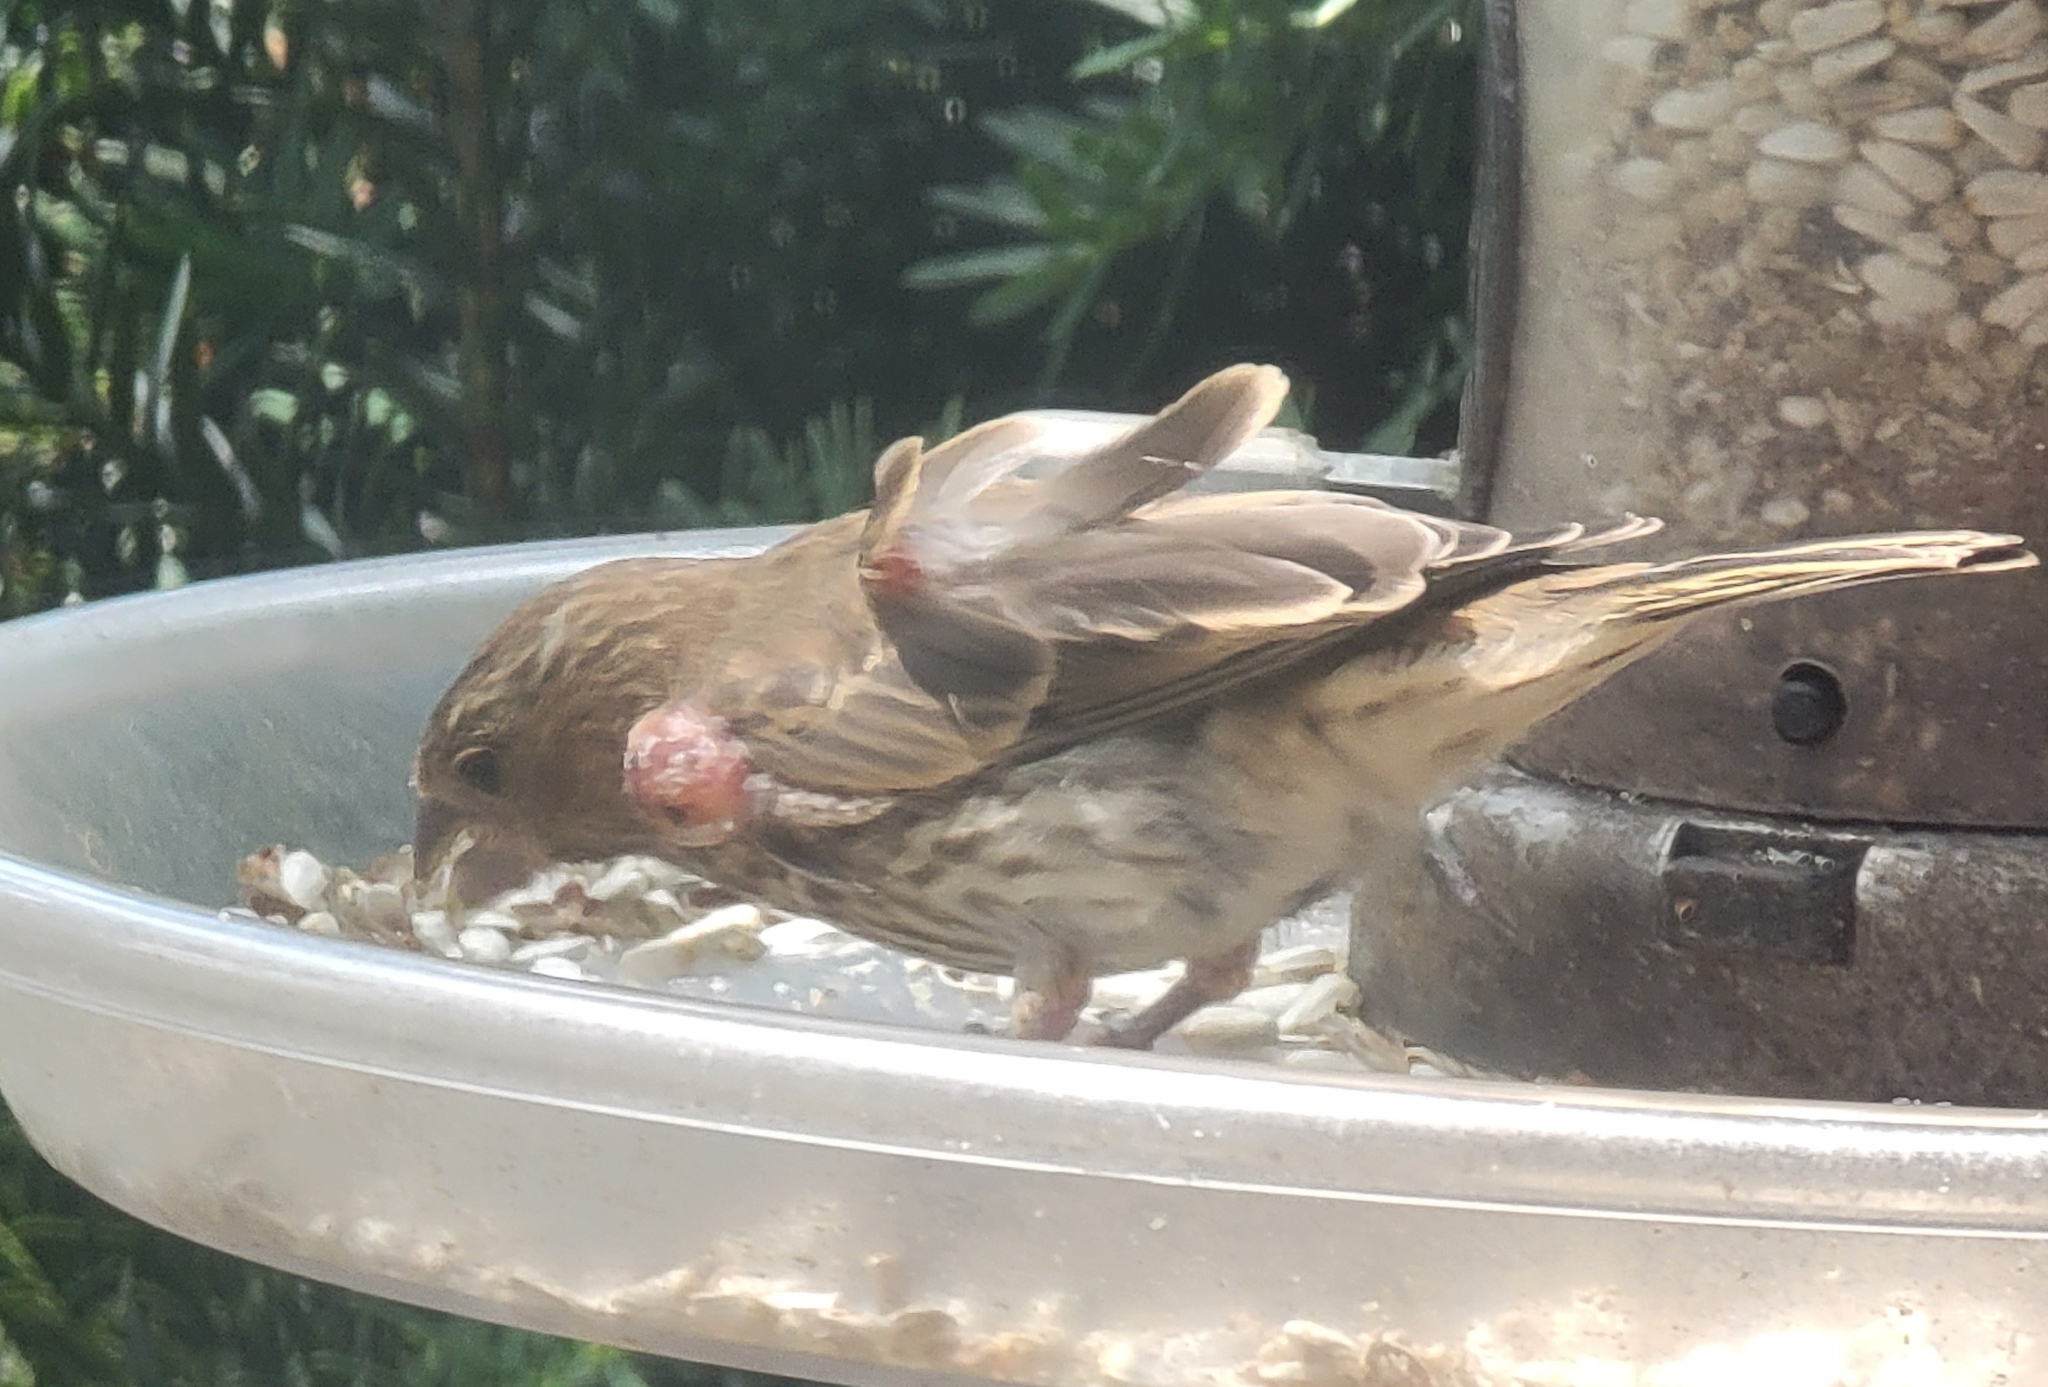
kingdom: Animalia
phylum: Chordata
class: Aves
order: Passeriformes
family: Fringillidae
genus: Haemorhous
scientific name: Haemorhous mexicanus
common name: House finch
